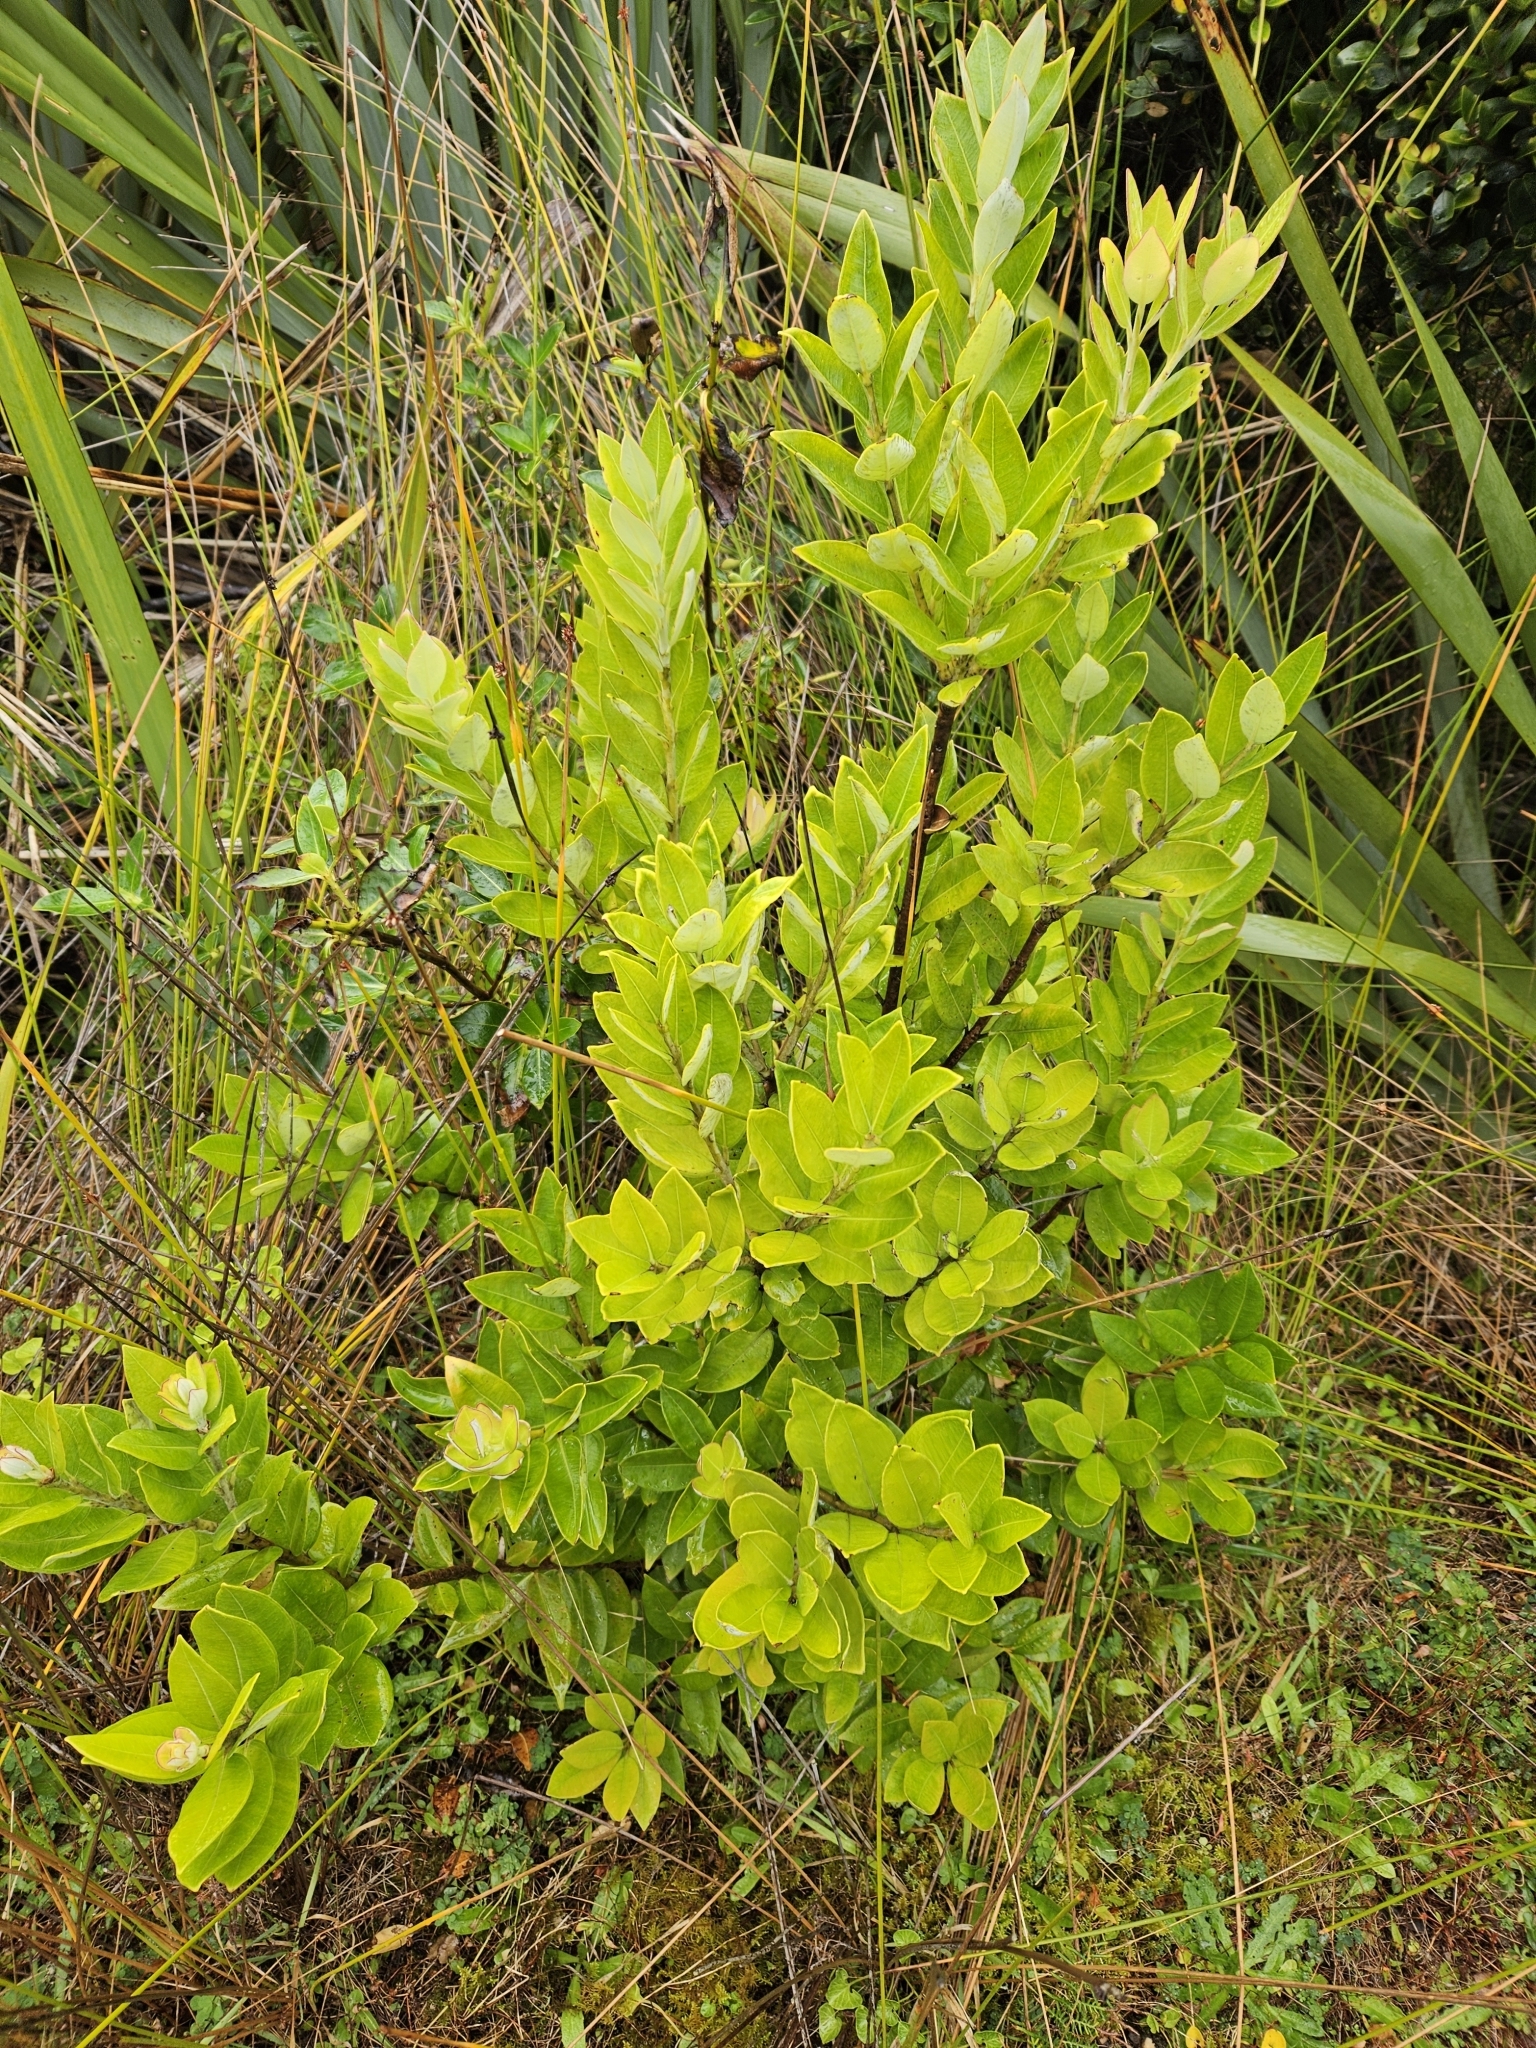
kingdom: Plantae
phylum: Tracheophyta
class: Magnoliopsida
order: Myrtales
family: Myrtaceae
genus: Metrosideros
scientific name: Metrosideros excelsa
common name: New zealand christmastree
